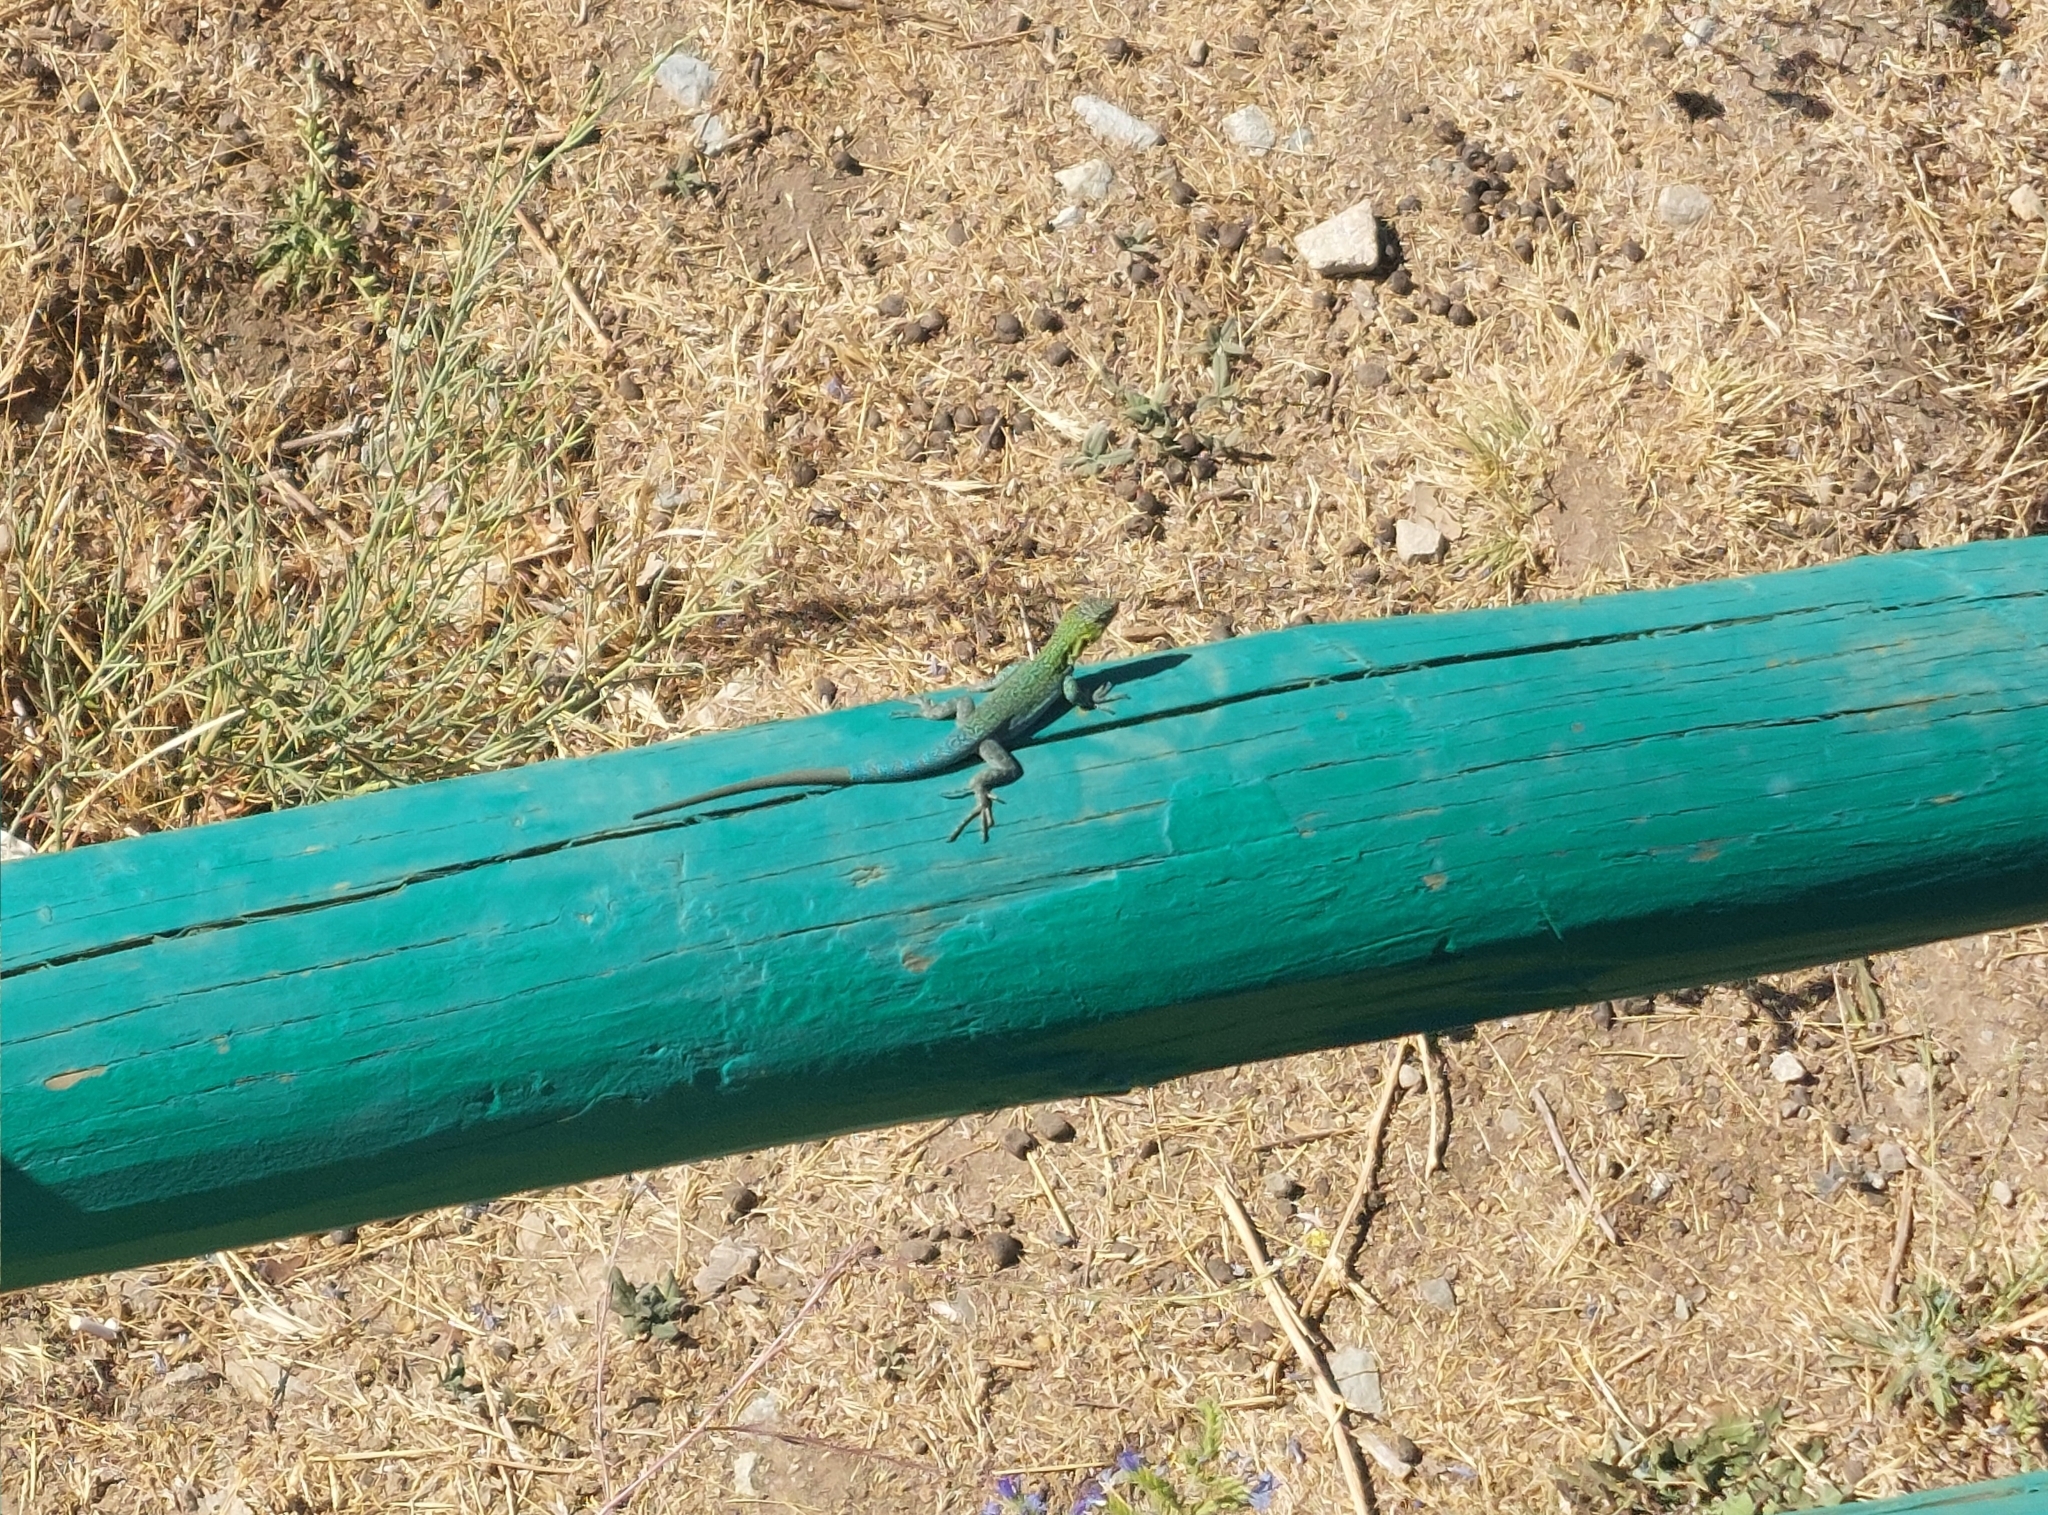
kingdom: Animalia
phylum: Chordata
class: Squamata
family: Liolaemidae
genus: Liolaemus
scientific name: Liolaemus tenuis
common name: Thin tree iguana
